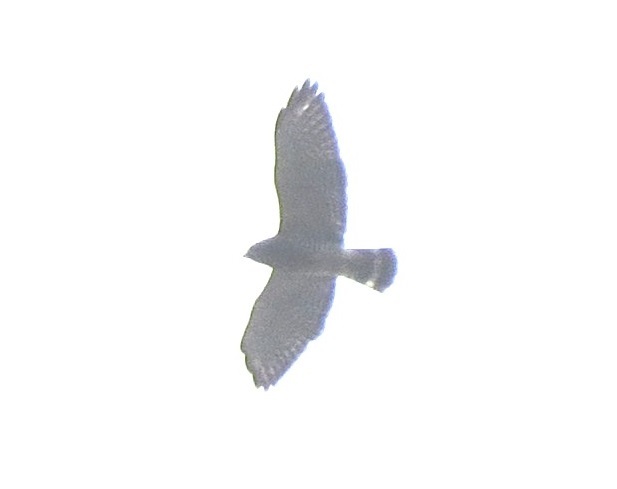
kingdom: Animalia
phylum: Chordata
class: Aves
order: Accipitriformes
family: Accipitridae
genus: Buteo
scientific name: Buteo platypterus
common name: Broad-winged hawk
